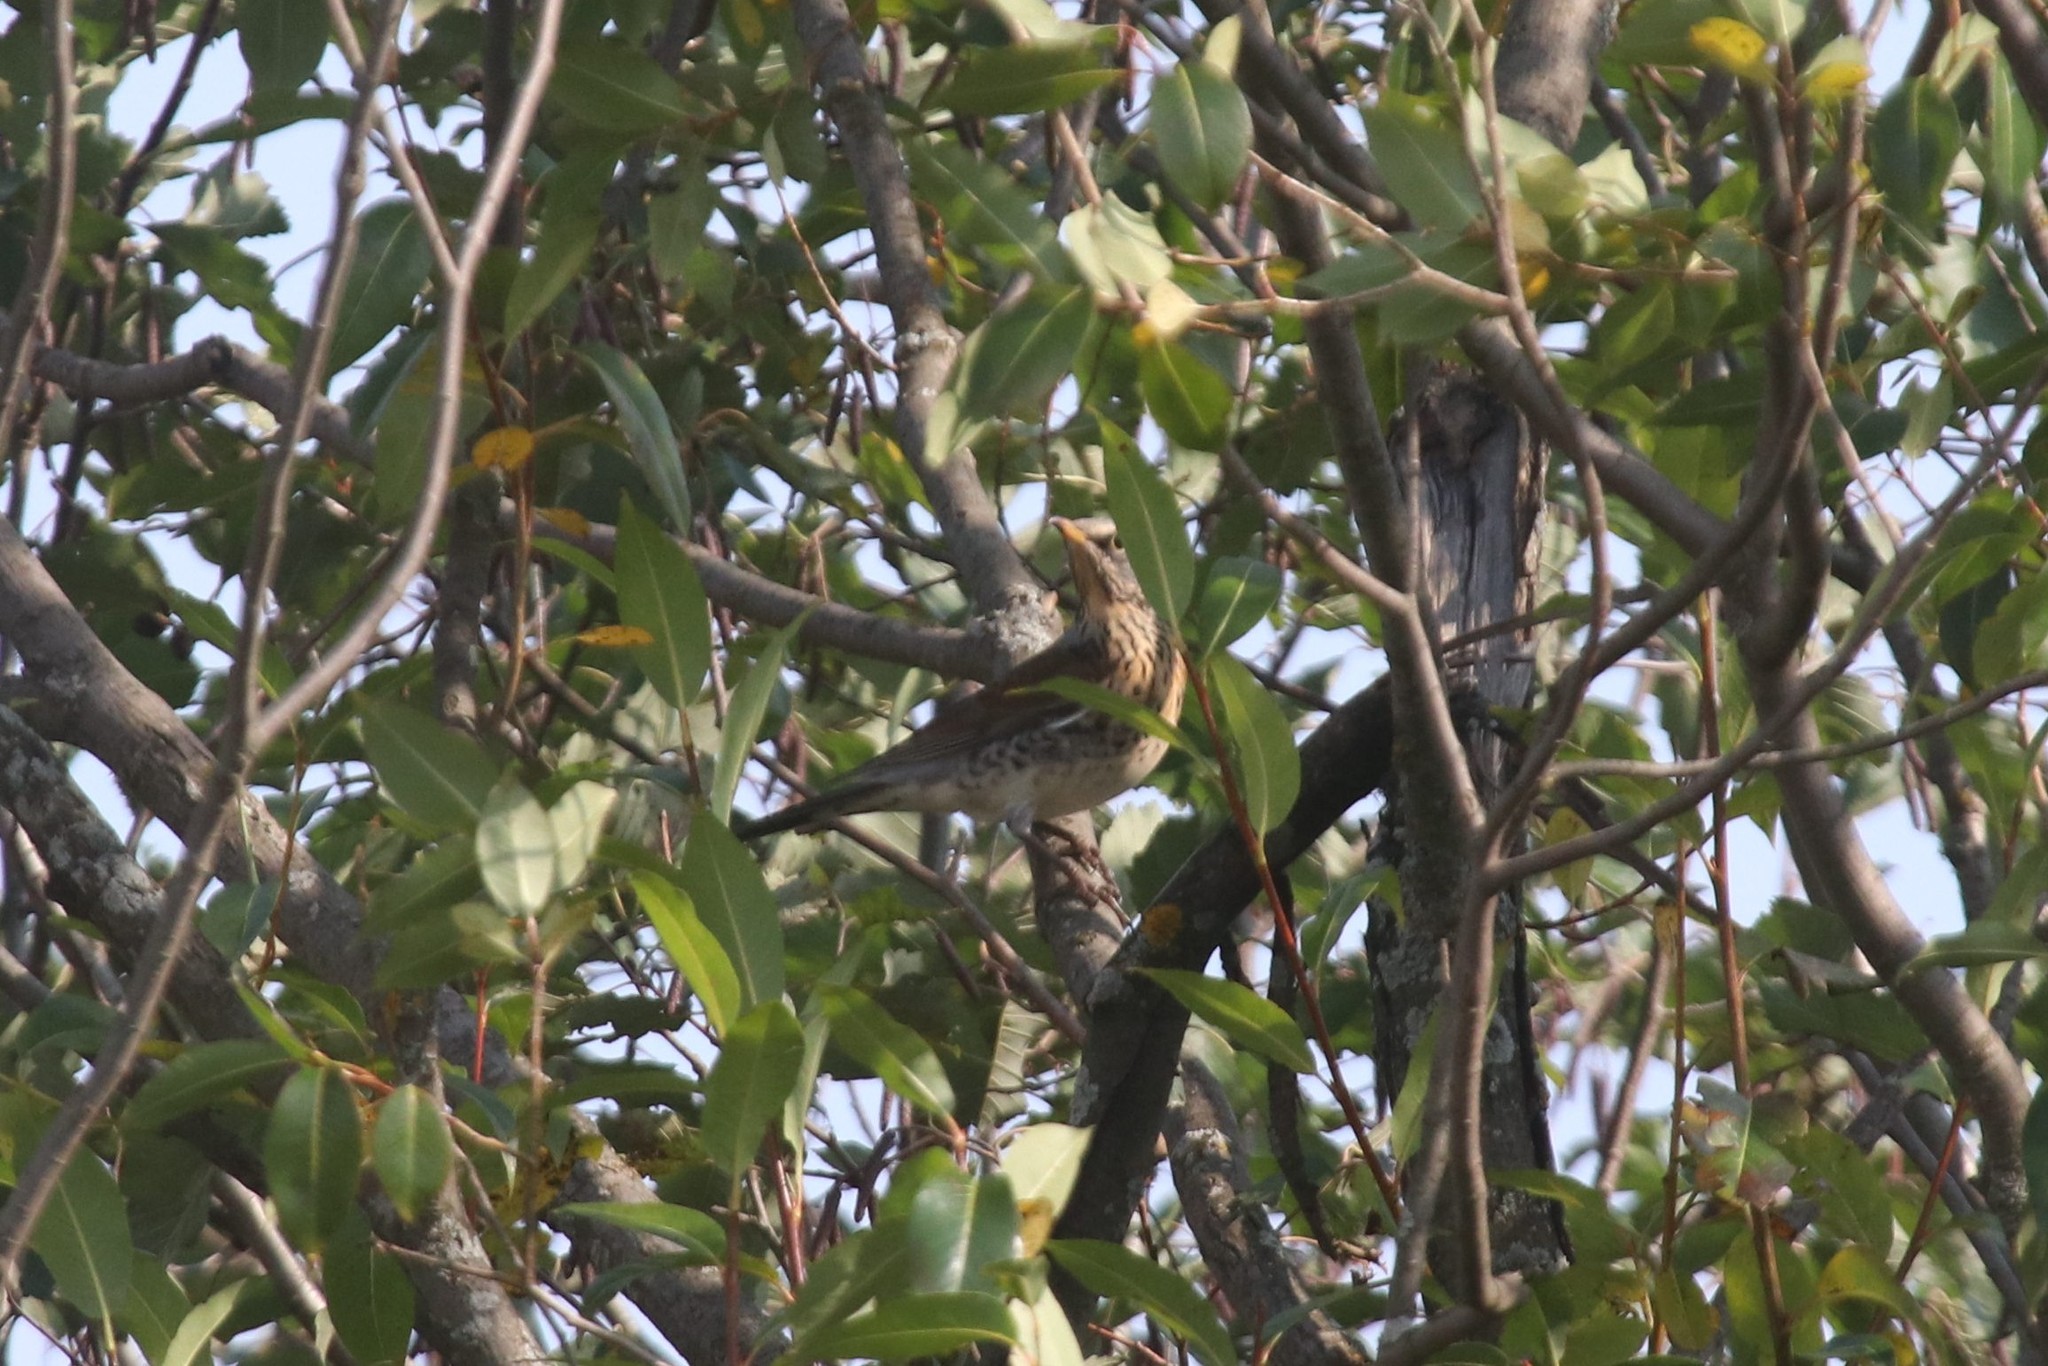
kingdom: Animalia
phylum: Chordata
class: Aves
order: Passeriformes
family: Turdidae
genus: Turdus
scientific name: Turdus pilaris
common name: Fieldfare
